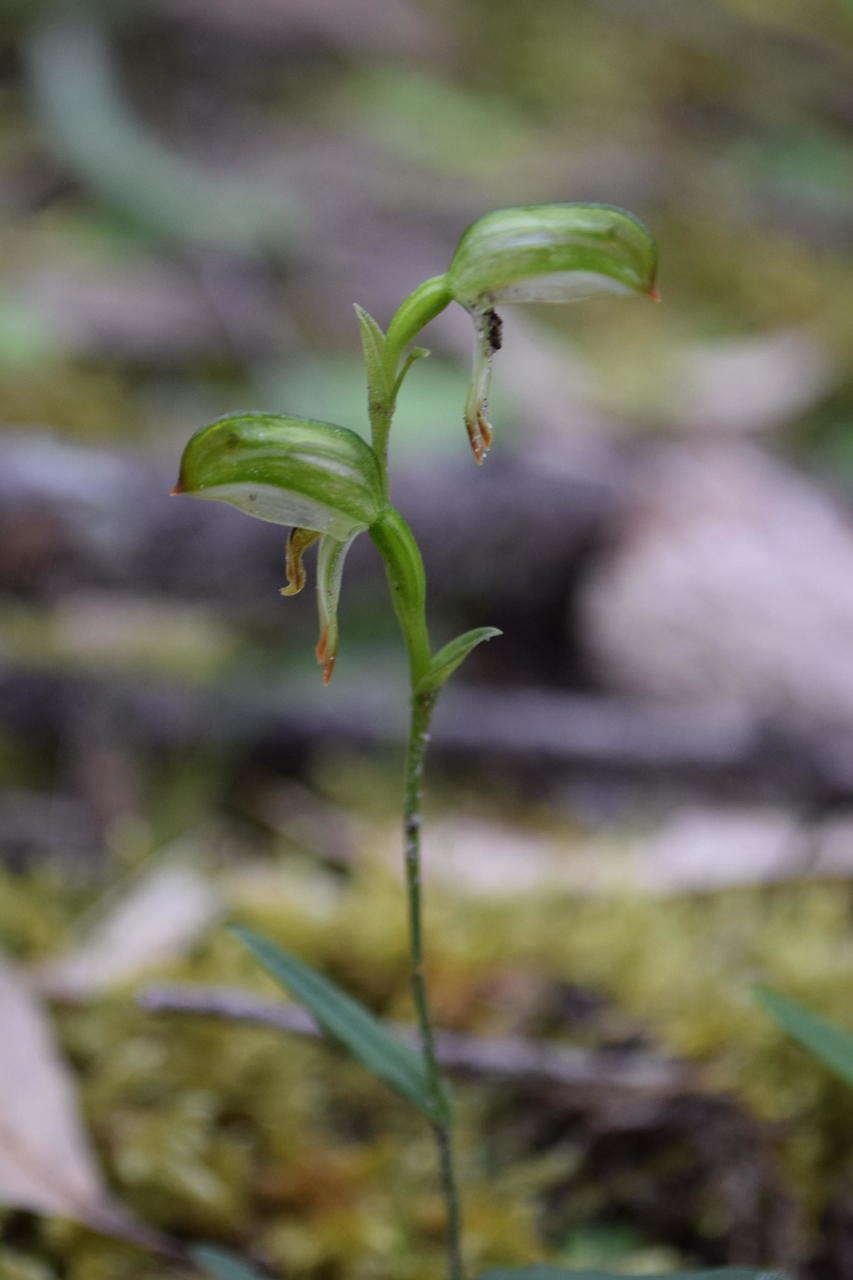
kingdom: Plantae
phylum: Tracheophyta
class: Liliopsida
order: Asparagales
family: Orchidaceae
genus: Pterostylis
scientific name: Pterostylis melagramma
